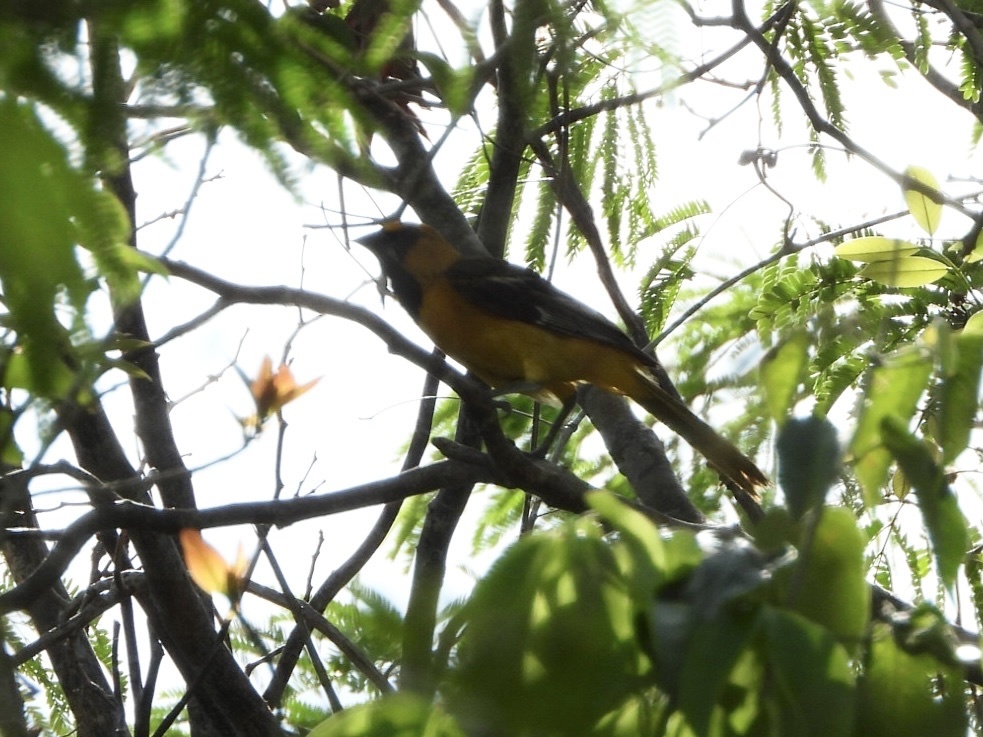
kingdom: Animalia
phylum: Chordata
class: Aves
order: Passeriformes
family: Icteridae
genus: Icterus
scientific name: Icterus gularis
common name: Altamira oriole
